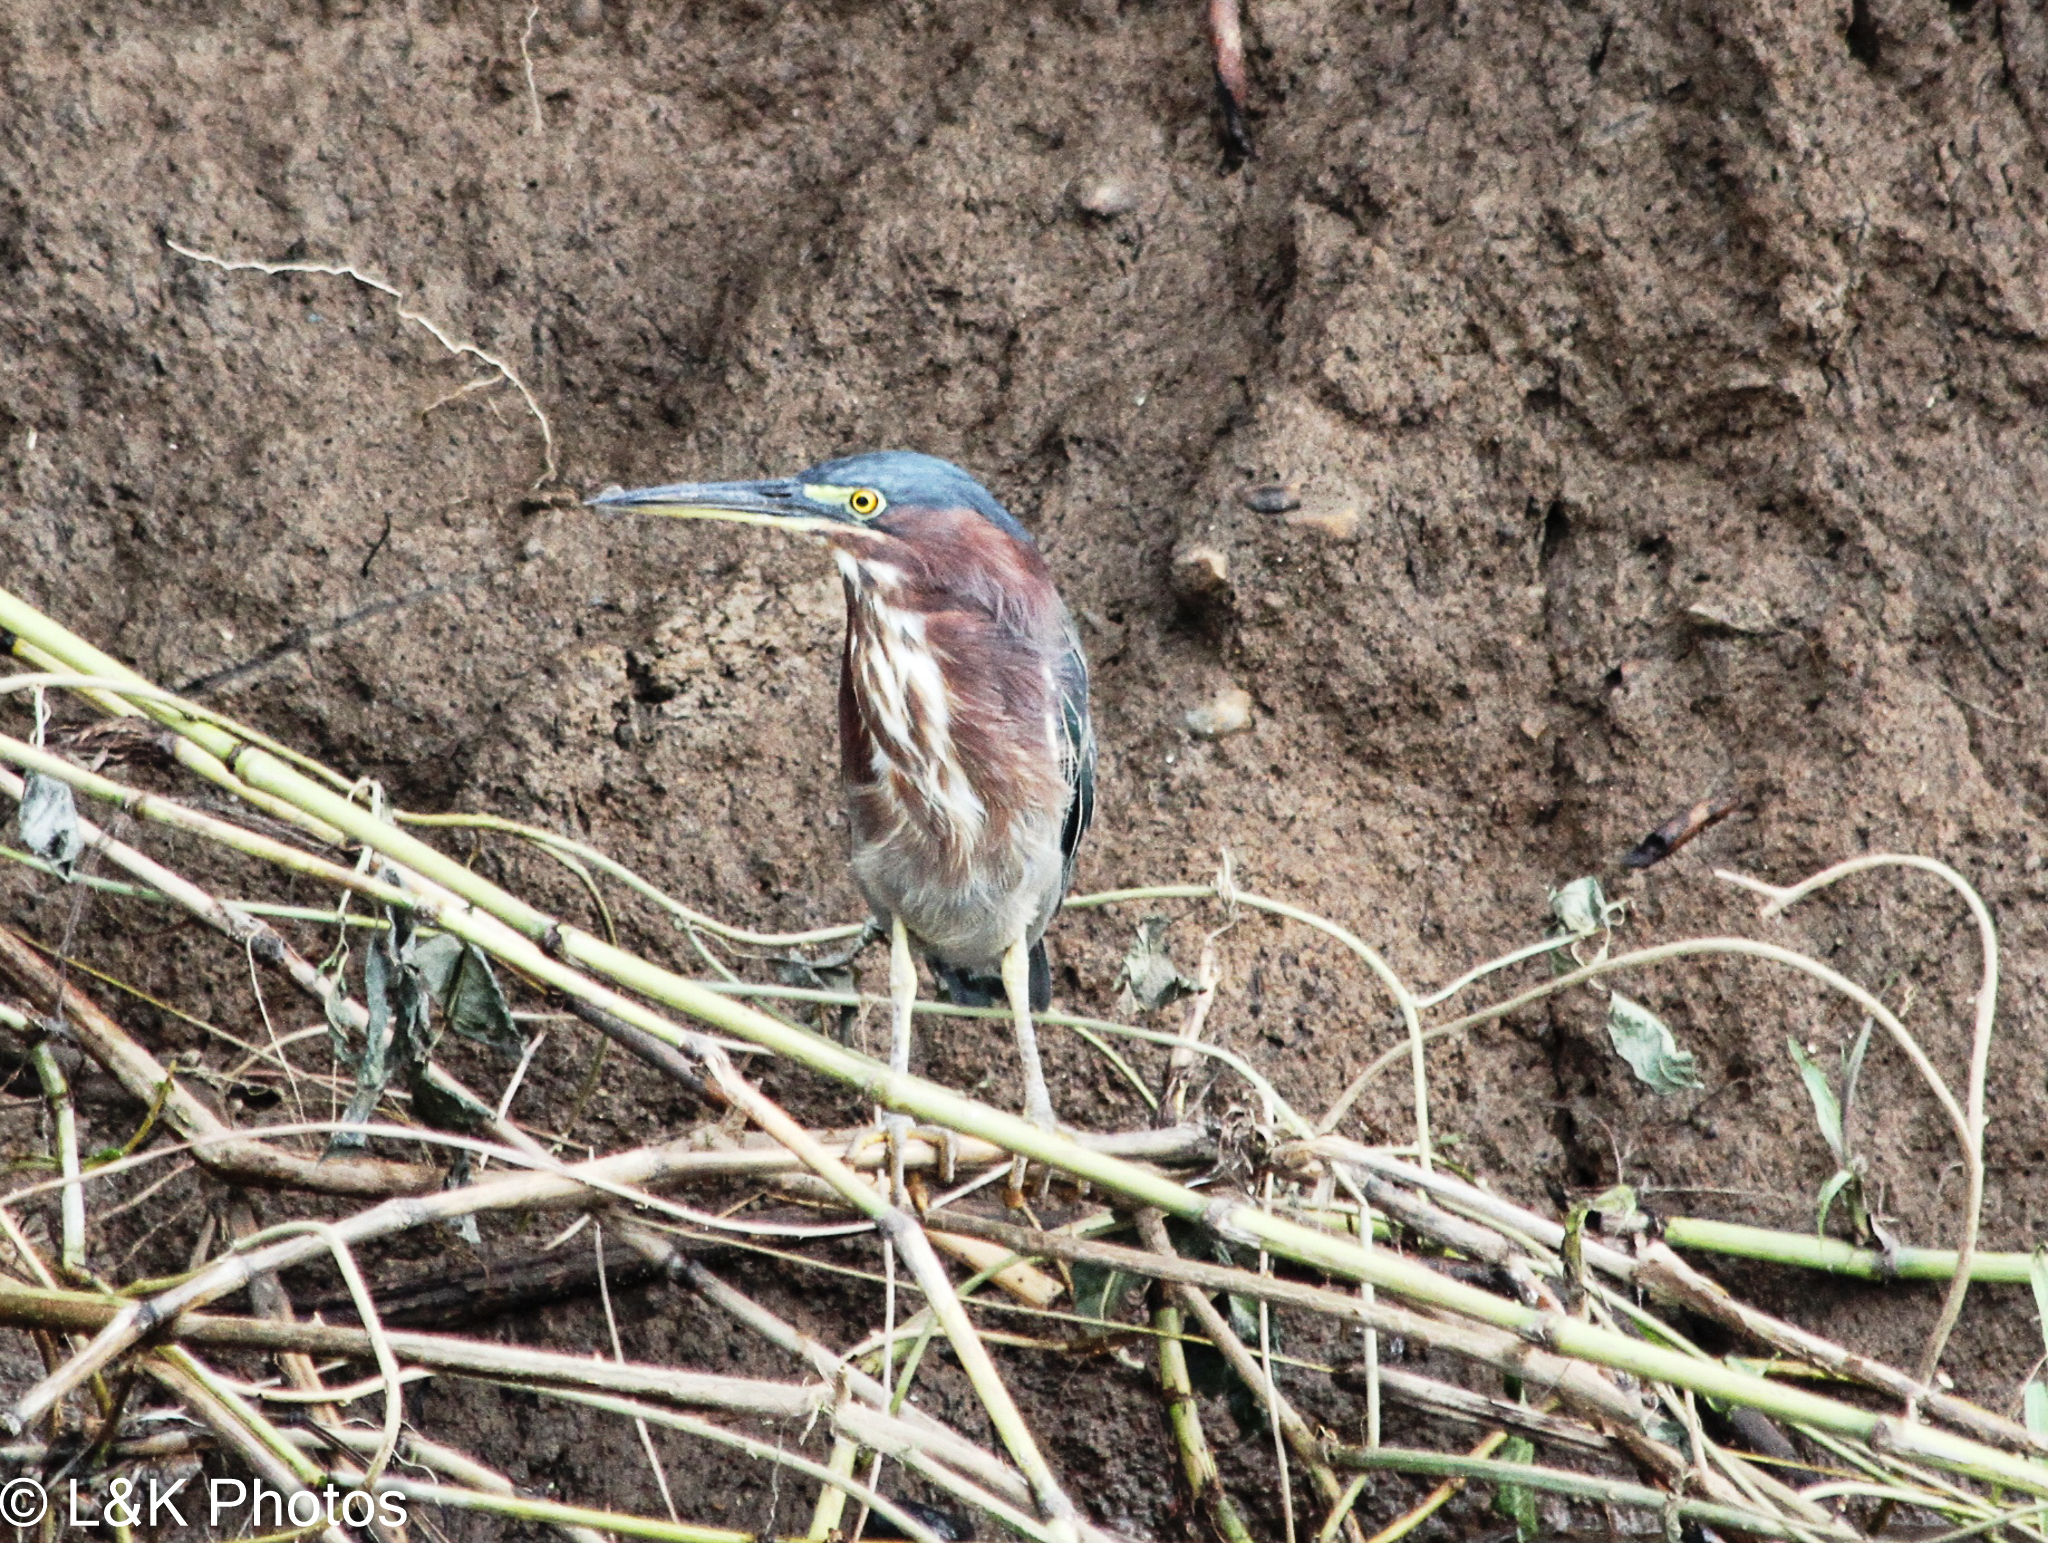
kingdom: Animalia
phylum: Chordata
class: Aves
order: Pelecaniformes
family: Ardeidae
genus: Butorides
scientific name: Butorides virescens
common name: Green heron
